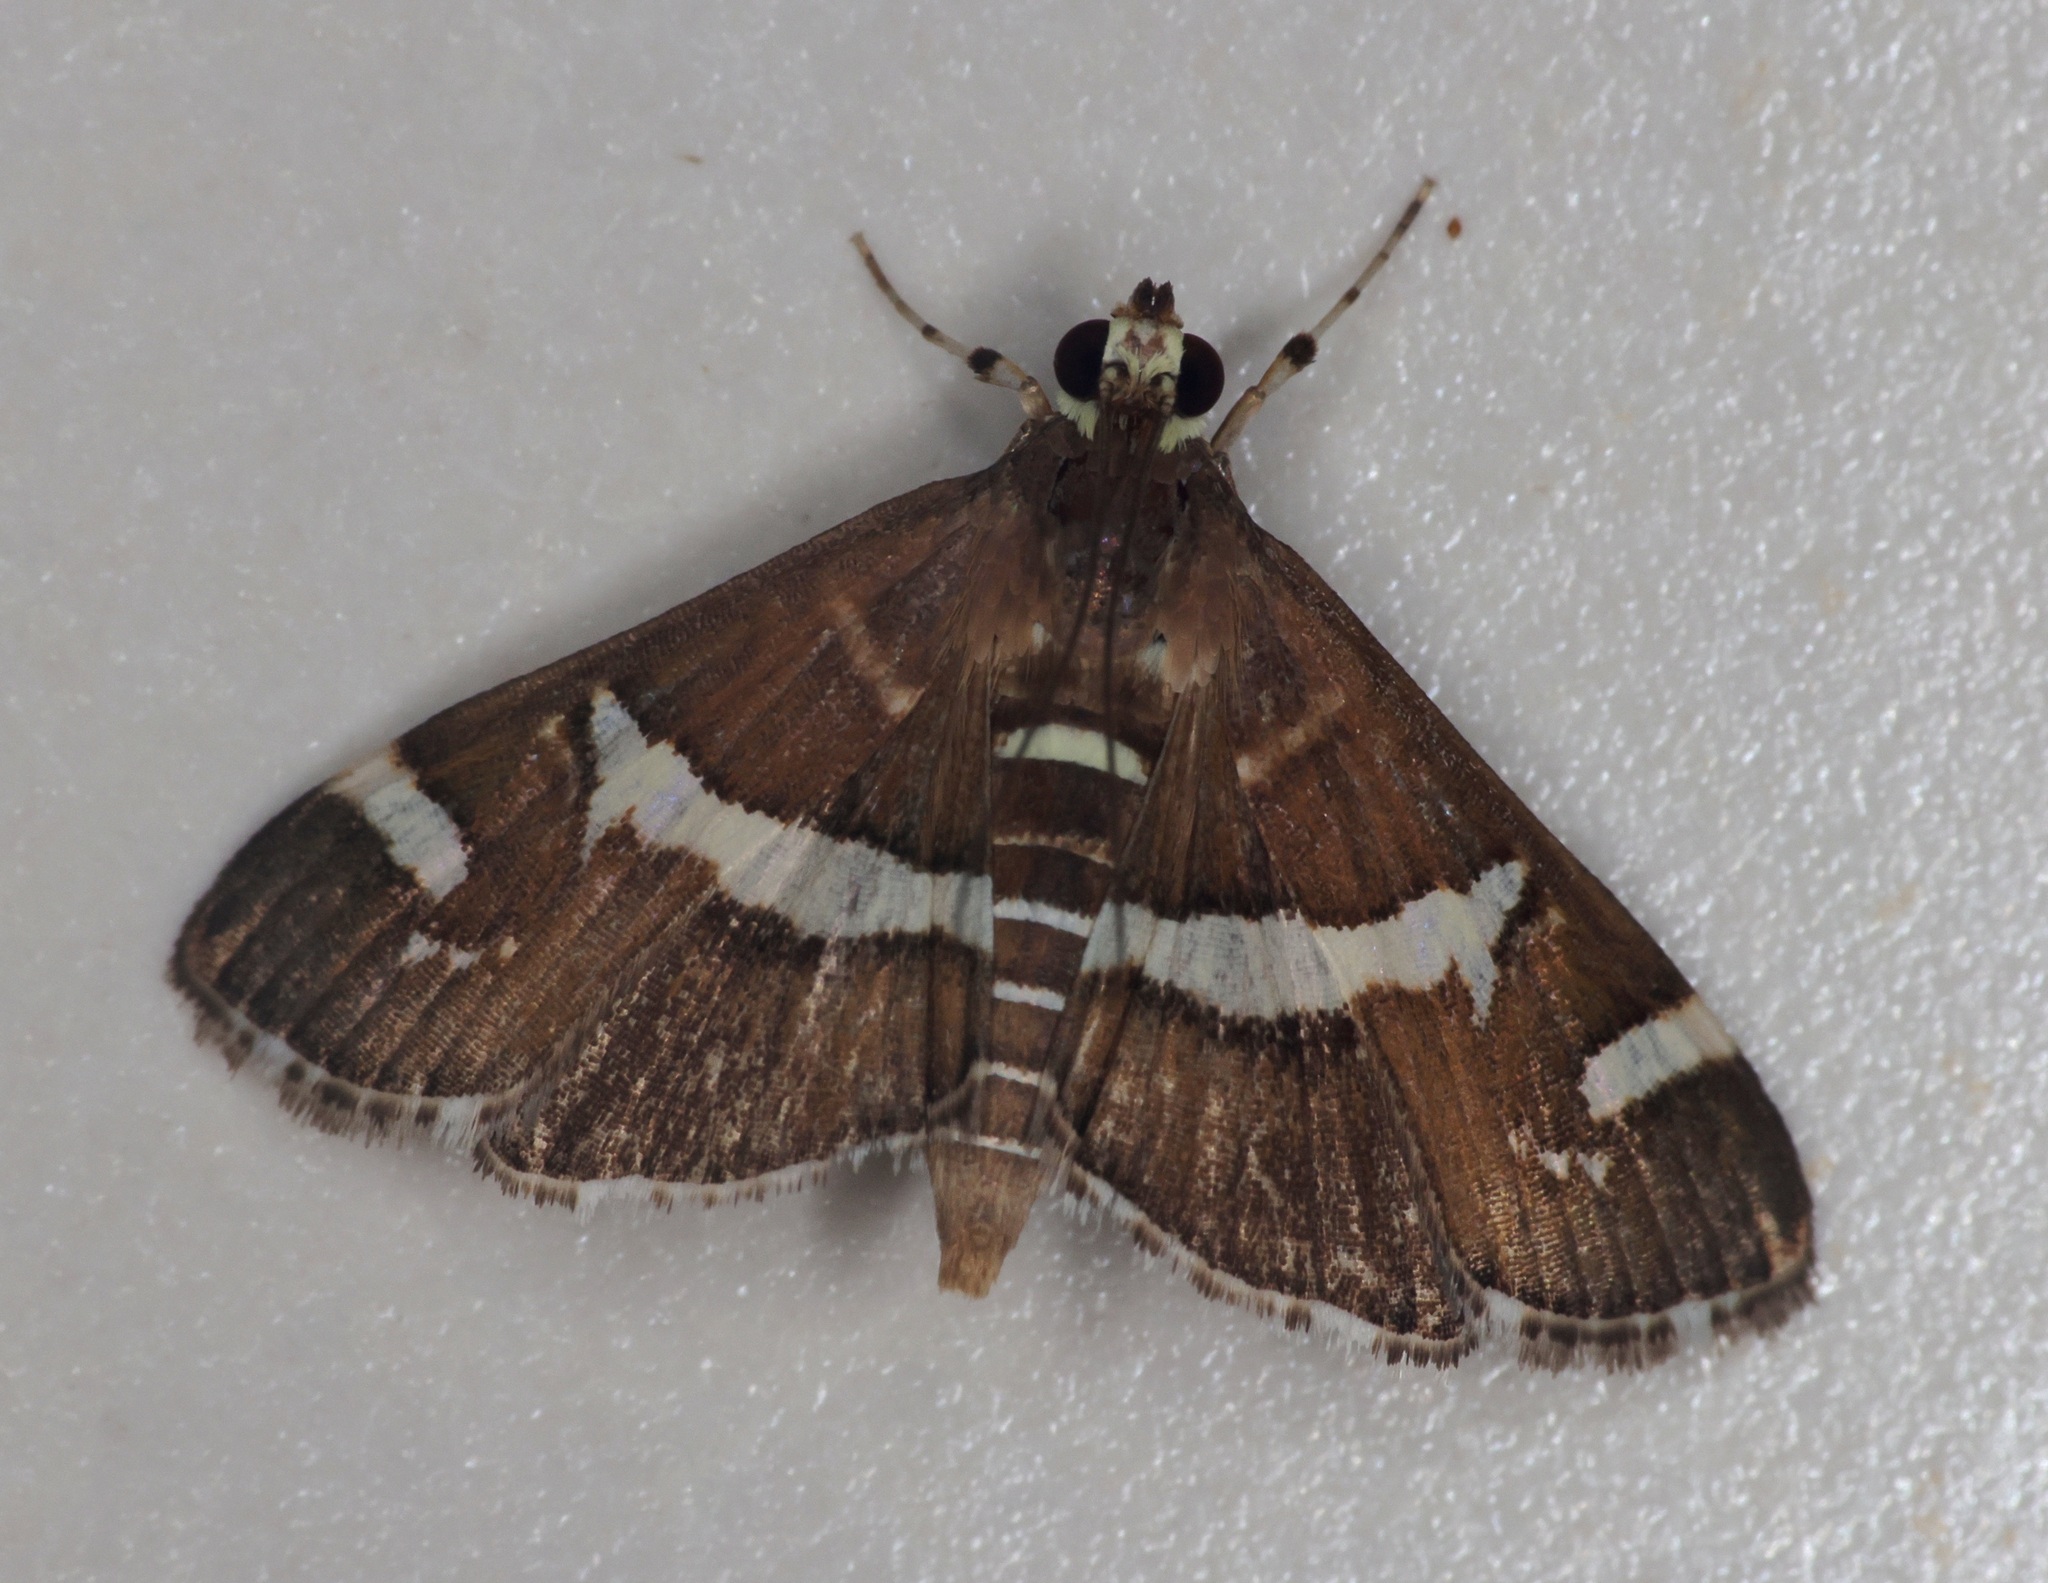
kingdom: Animalia
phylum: Arthropoda
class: Insecta
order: Lepidoptera
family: Crambidae
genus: Spoladea
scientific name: Spoladea recurvalis
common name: Beet webworm moth
